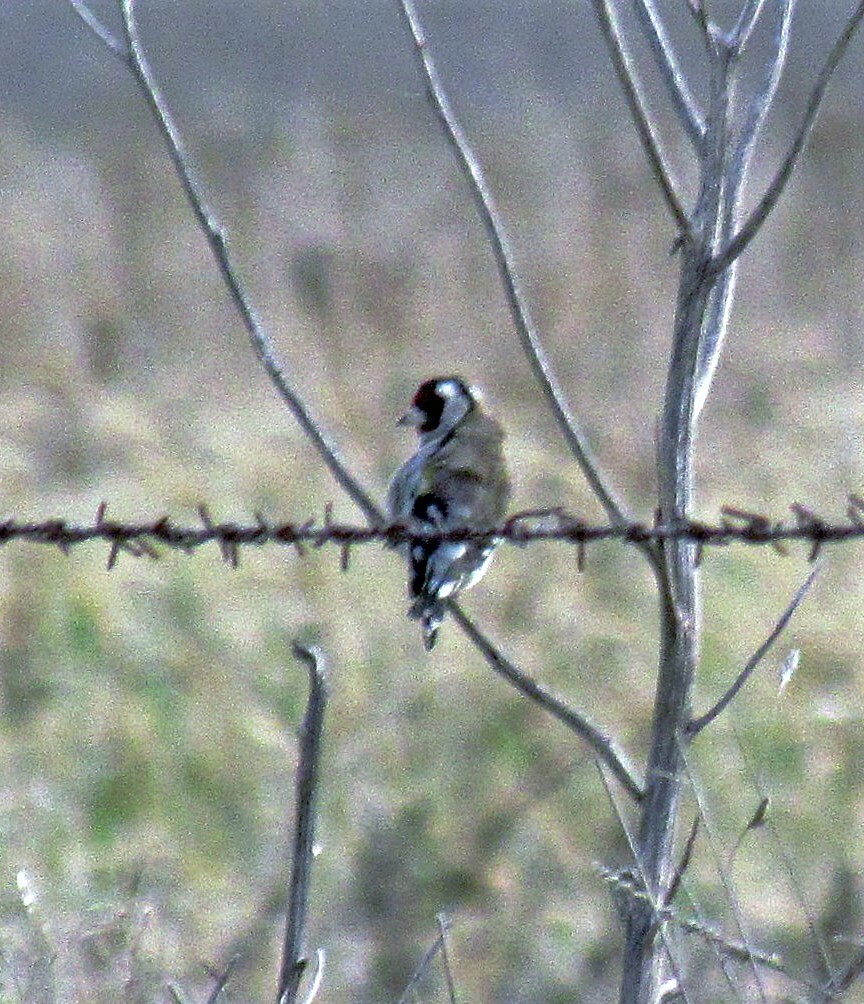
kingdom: Animalia
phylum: Chordata
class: Aves
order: Passeriformes
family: Fringillidae
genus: Carduelis
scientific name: Carduelis carduelis
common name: European goldfinch
